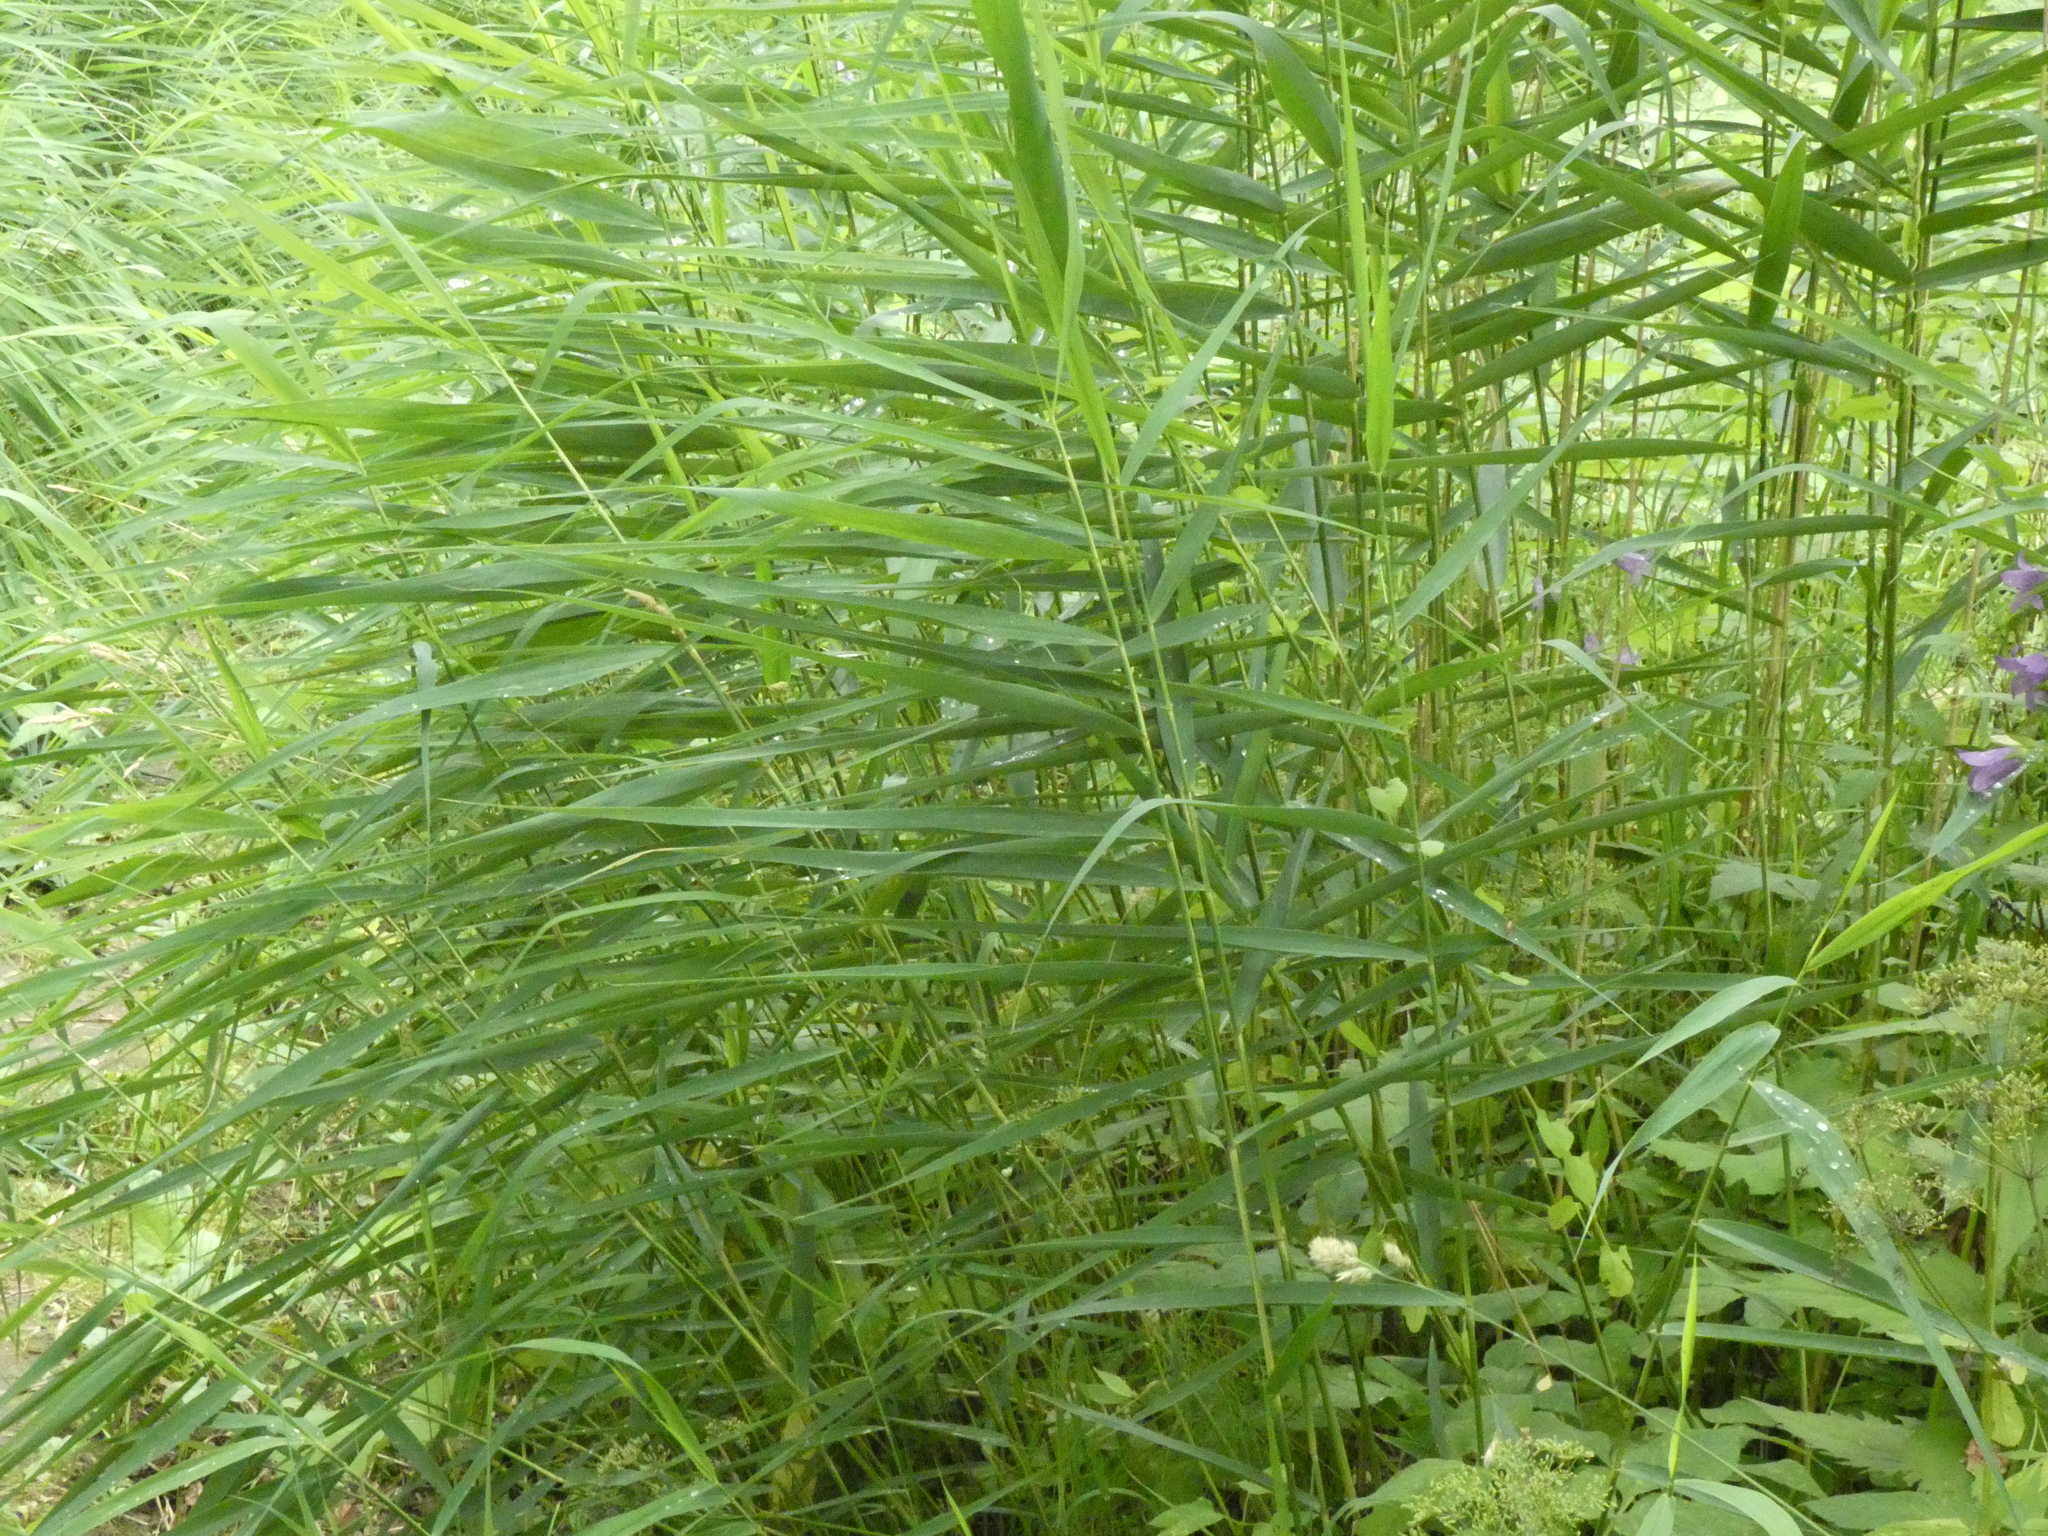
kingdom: Plantae
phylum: Tracheophyta
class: Liliopsida
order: Poales
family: Poaceae
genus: Phragmites
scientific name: Phragmites australis
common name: Common reed
